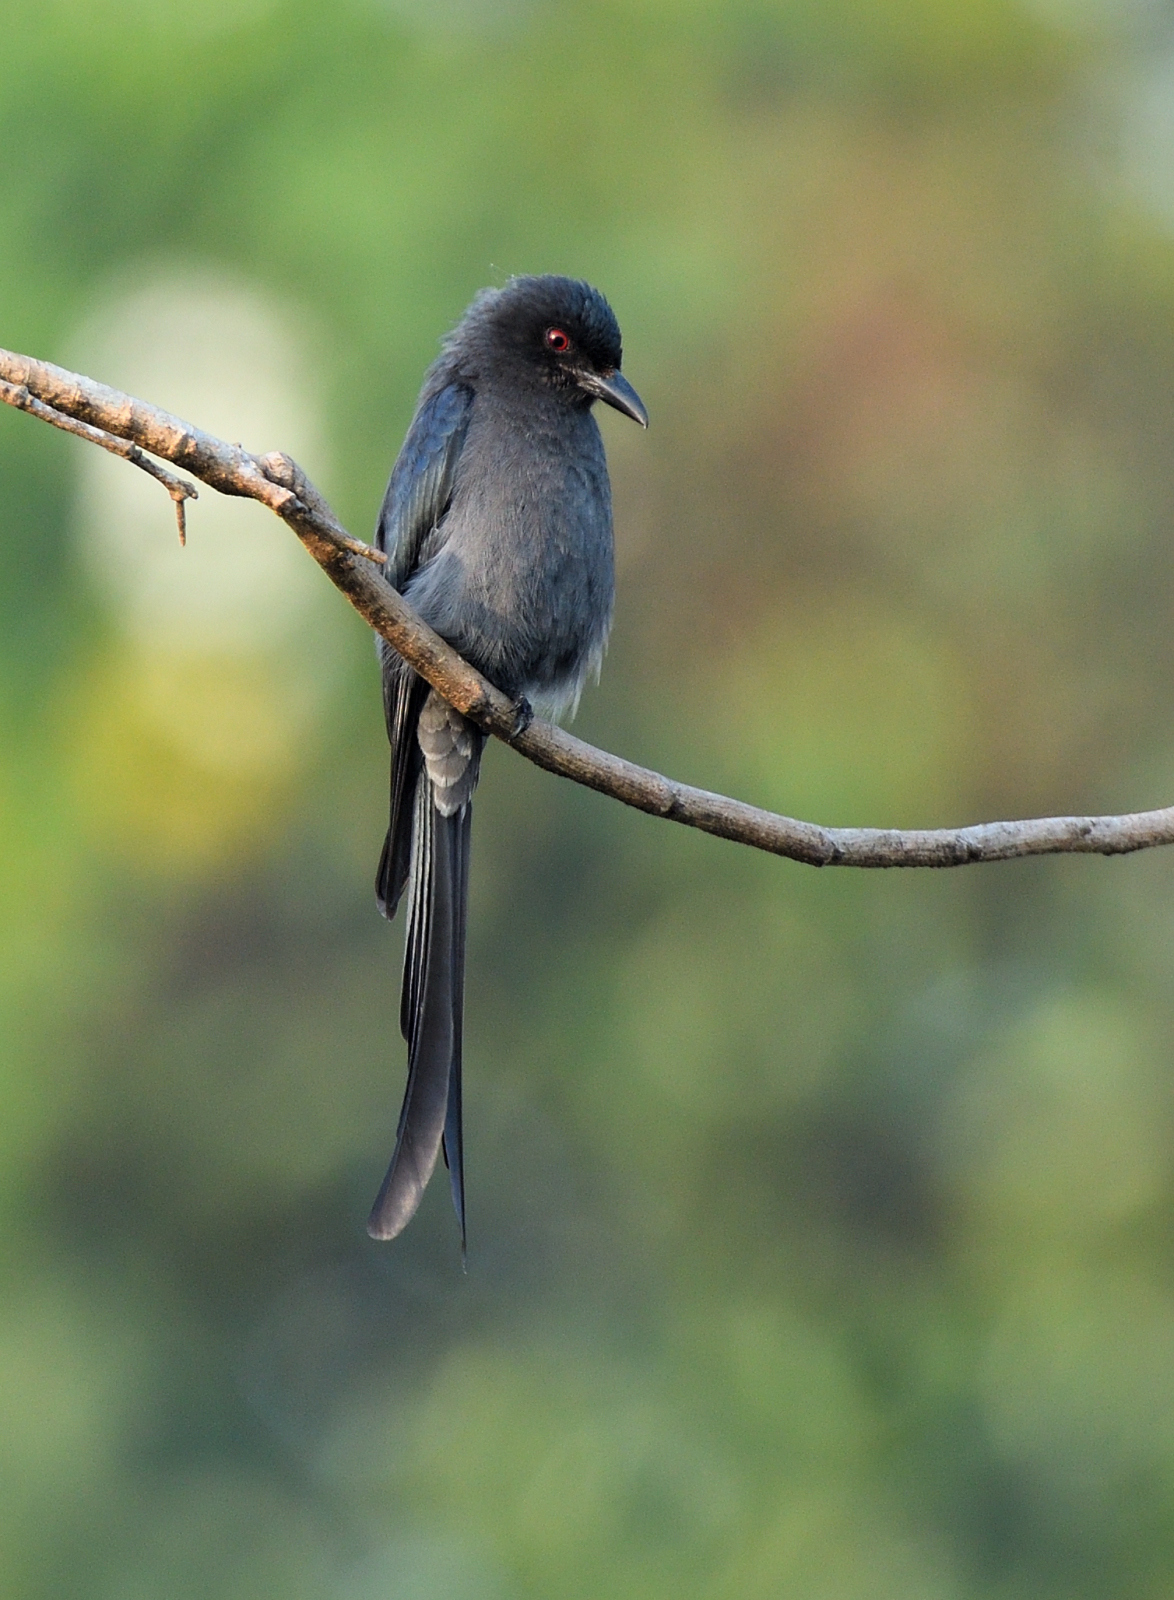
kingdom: Animalia
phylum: Chordata
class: Aves
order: Passeriformes
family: Dicruridae
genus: Dicrurus
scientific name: Dicrurus leucophaeus
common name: Ashy drongo
